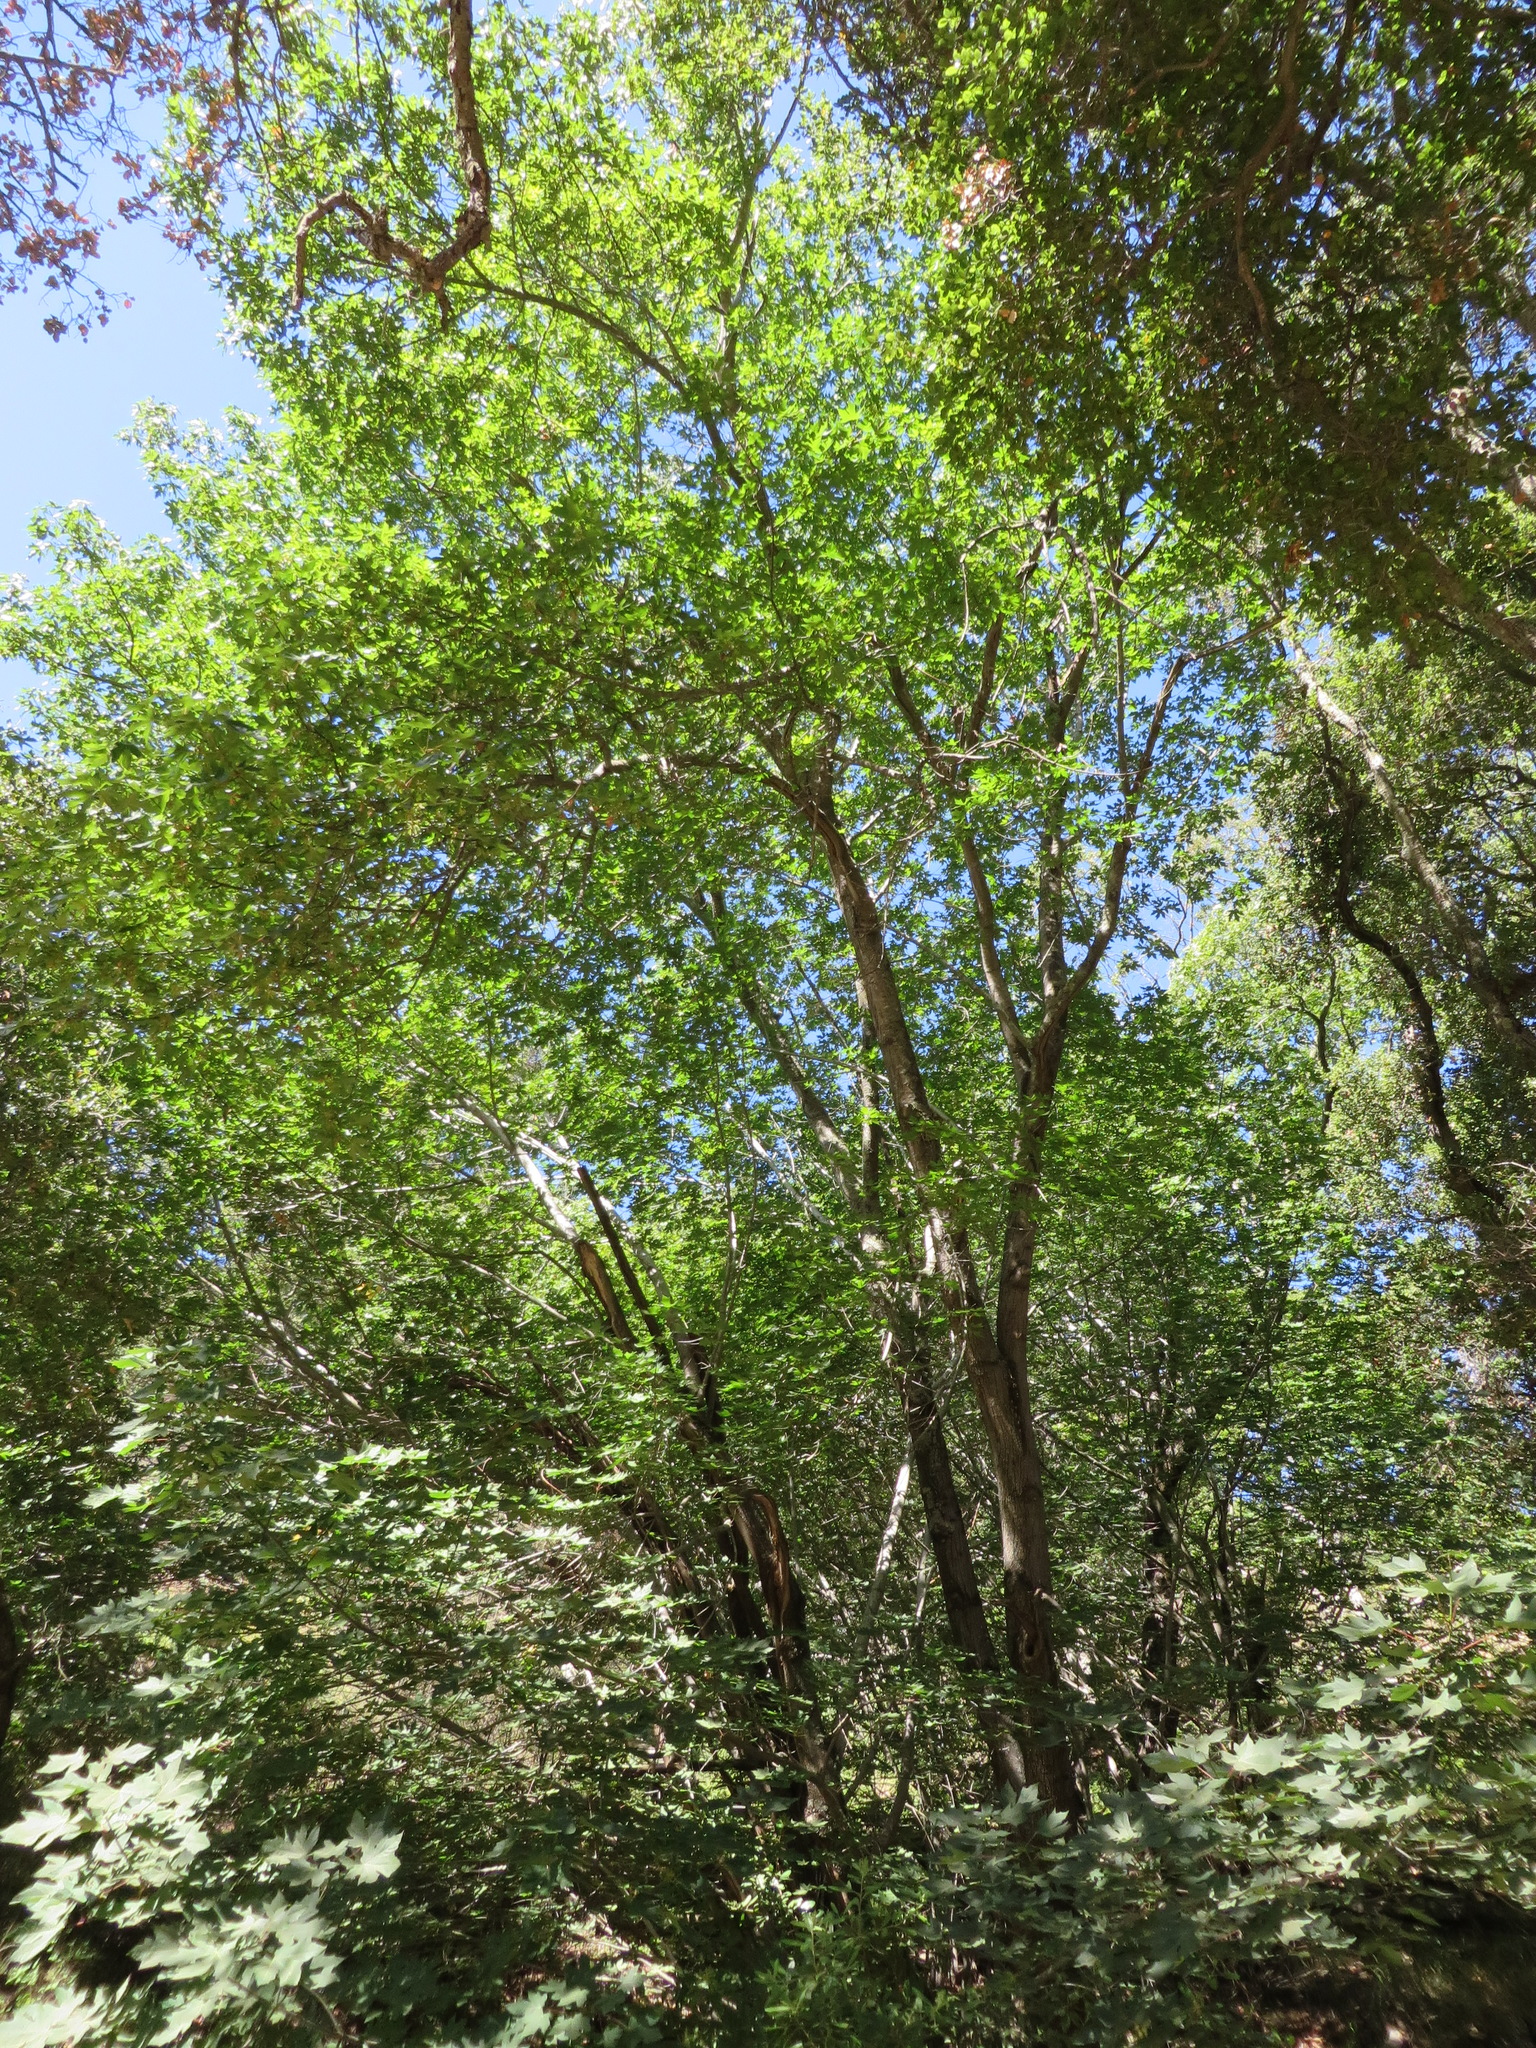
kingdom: Plantae
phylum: Tracheophyta
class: Magnoliopsida
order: Sapindales
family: Sapindaceae
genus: Acer
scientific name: Acer macrophyllum
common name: Oregon maple
